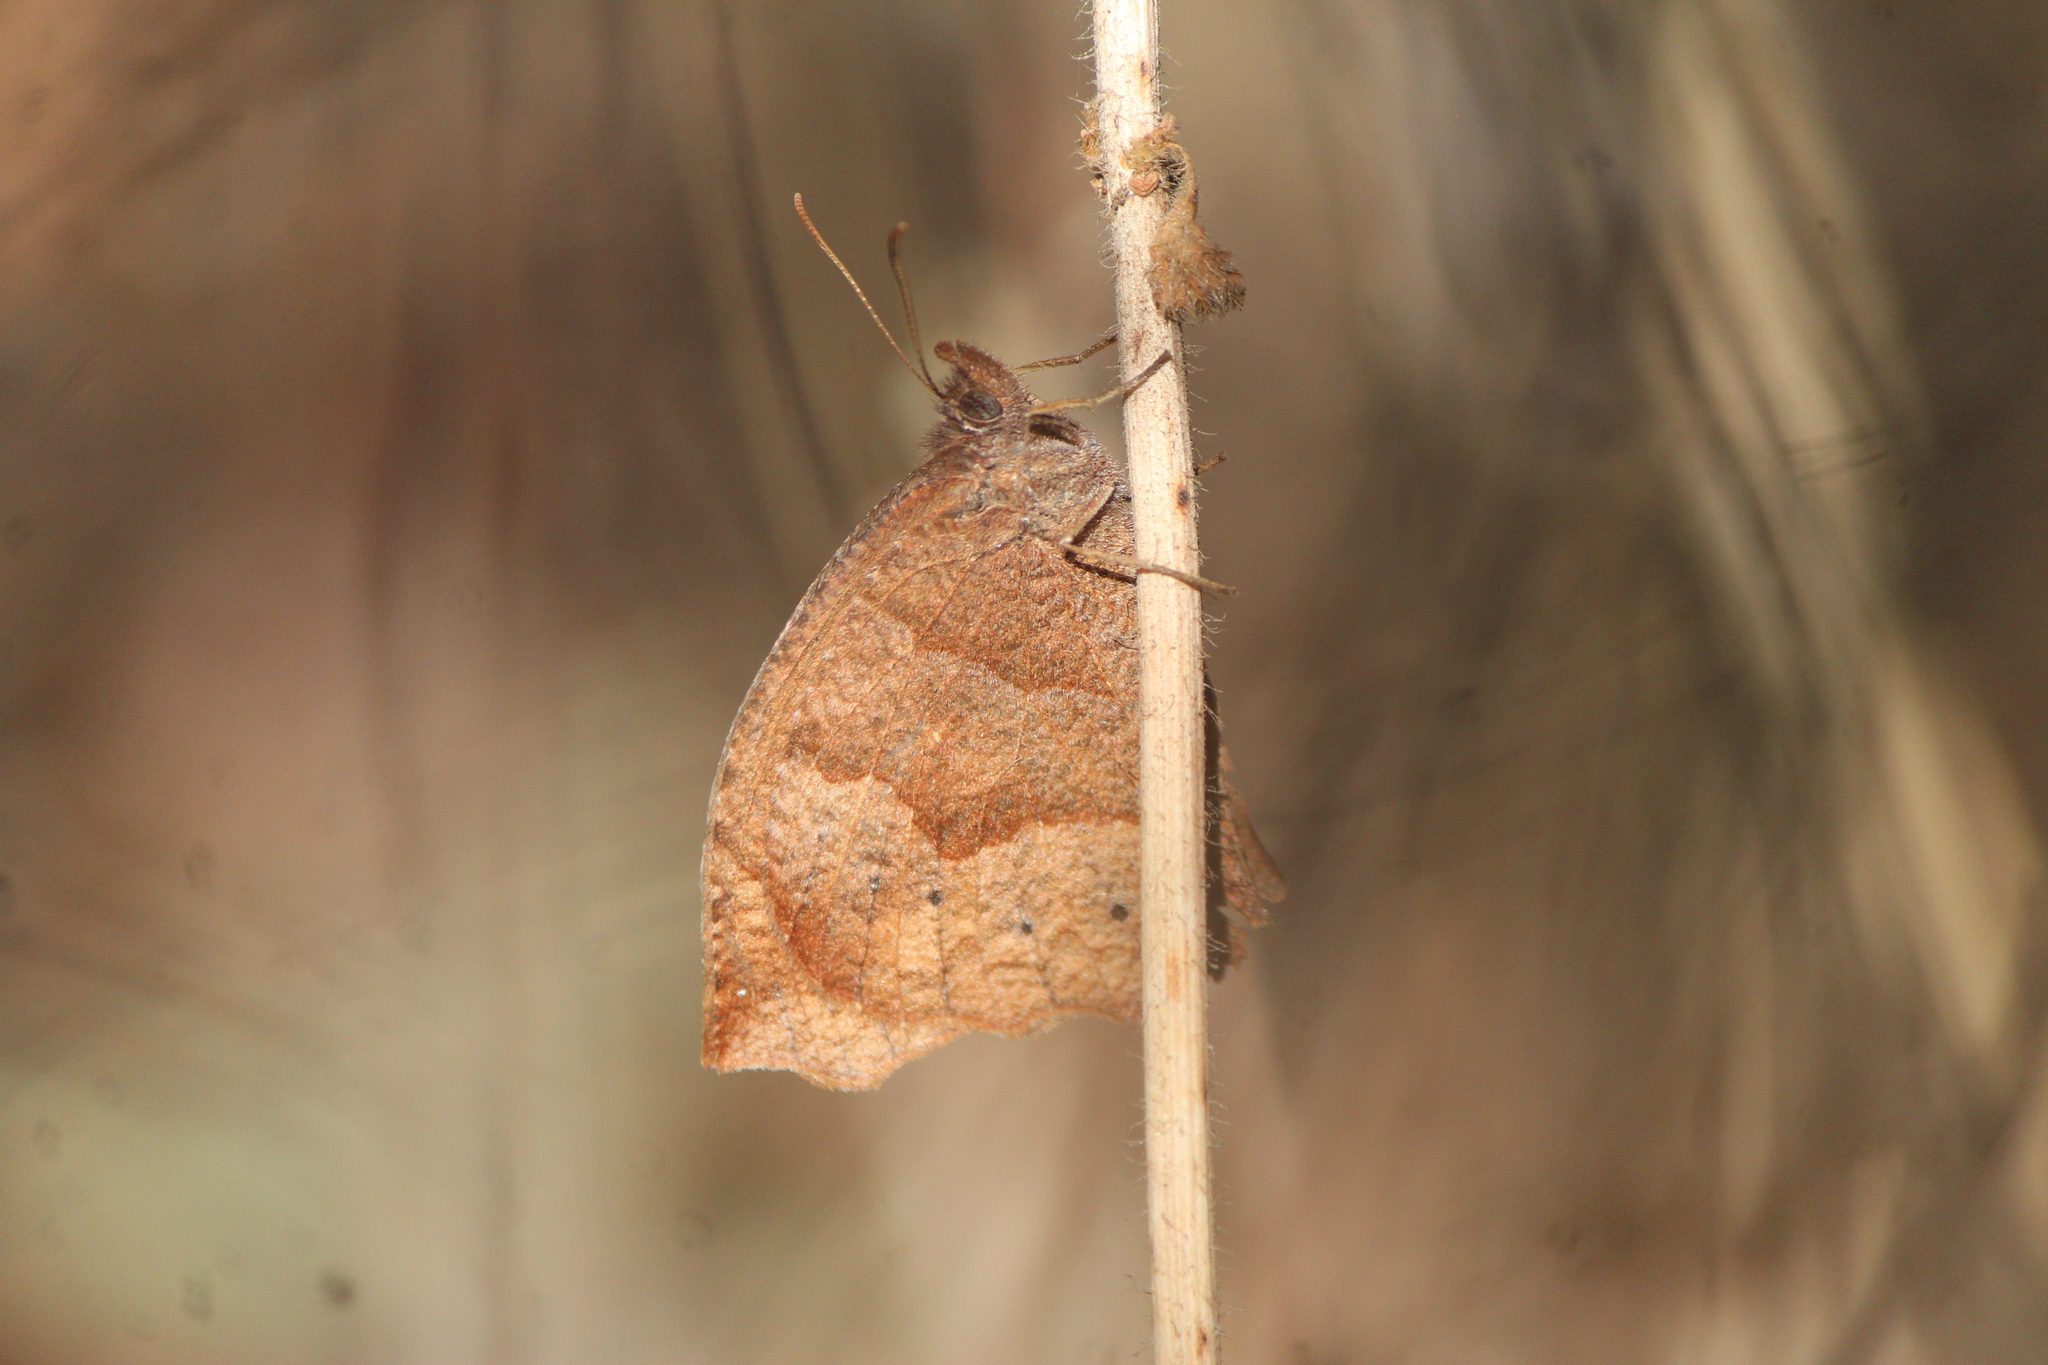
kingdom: Animalia
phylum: Arthropoda
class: Insecta
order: Lepidoptera
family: Nymphalidae
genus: Pindis
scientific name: Pindis squamistriga
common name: Variable satyr
